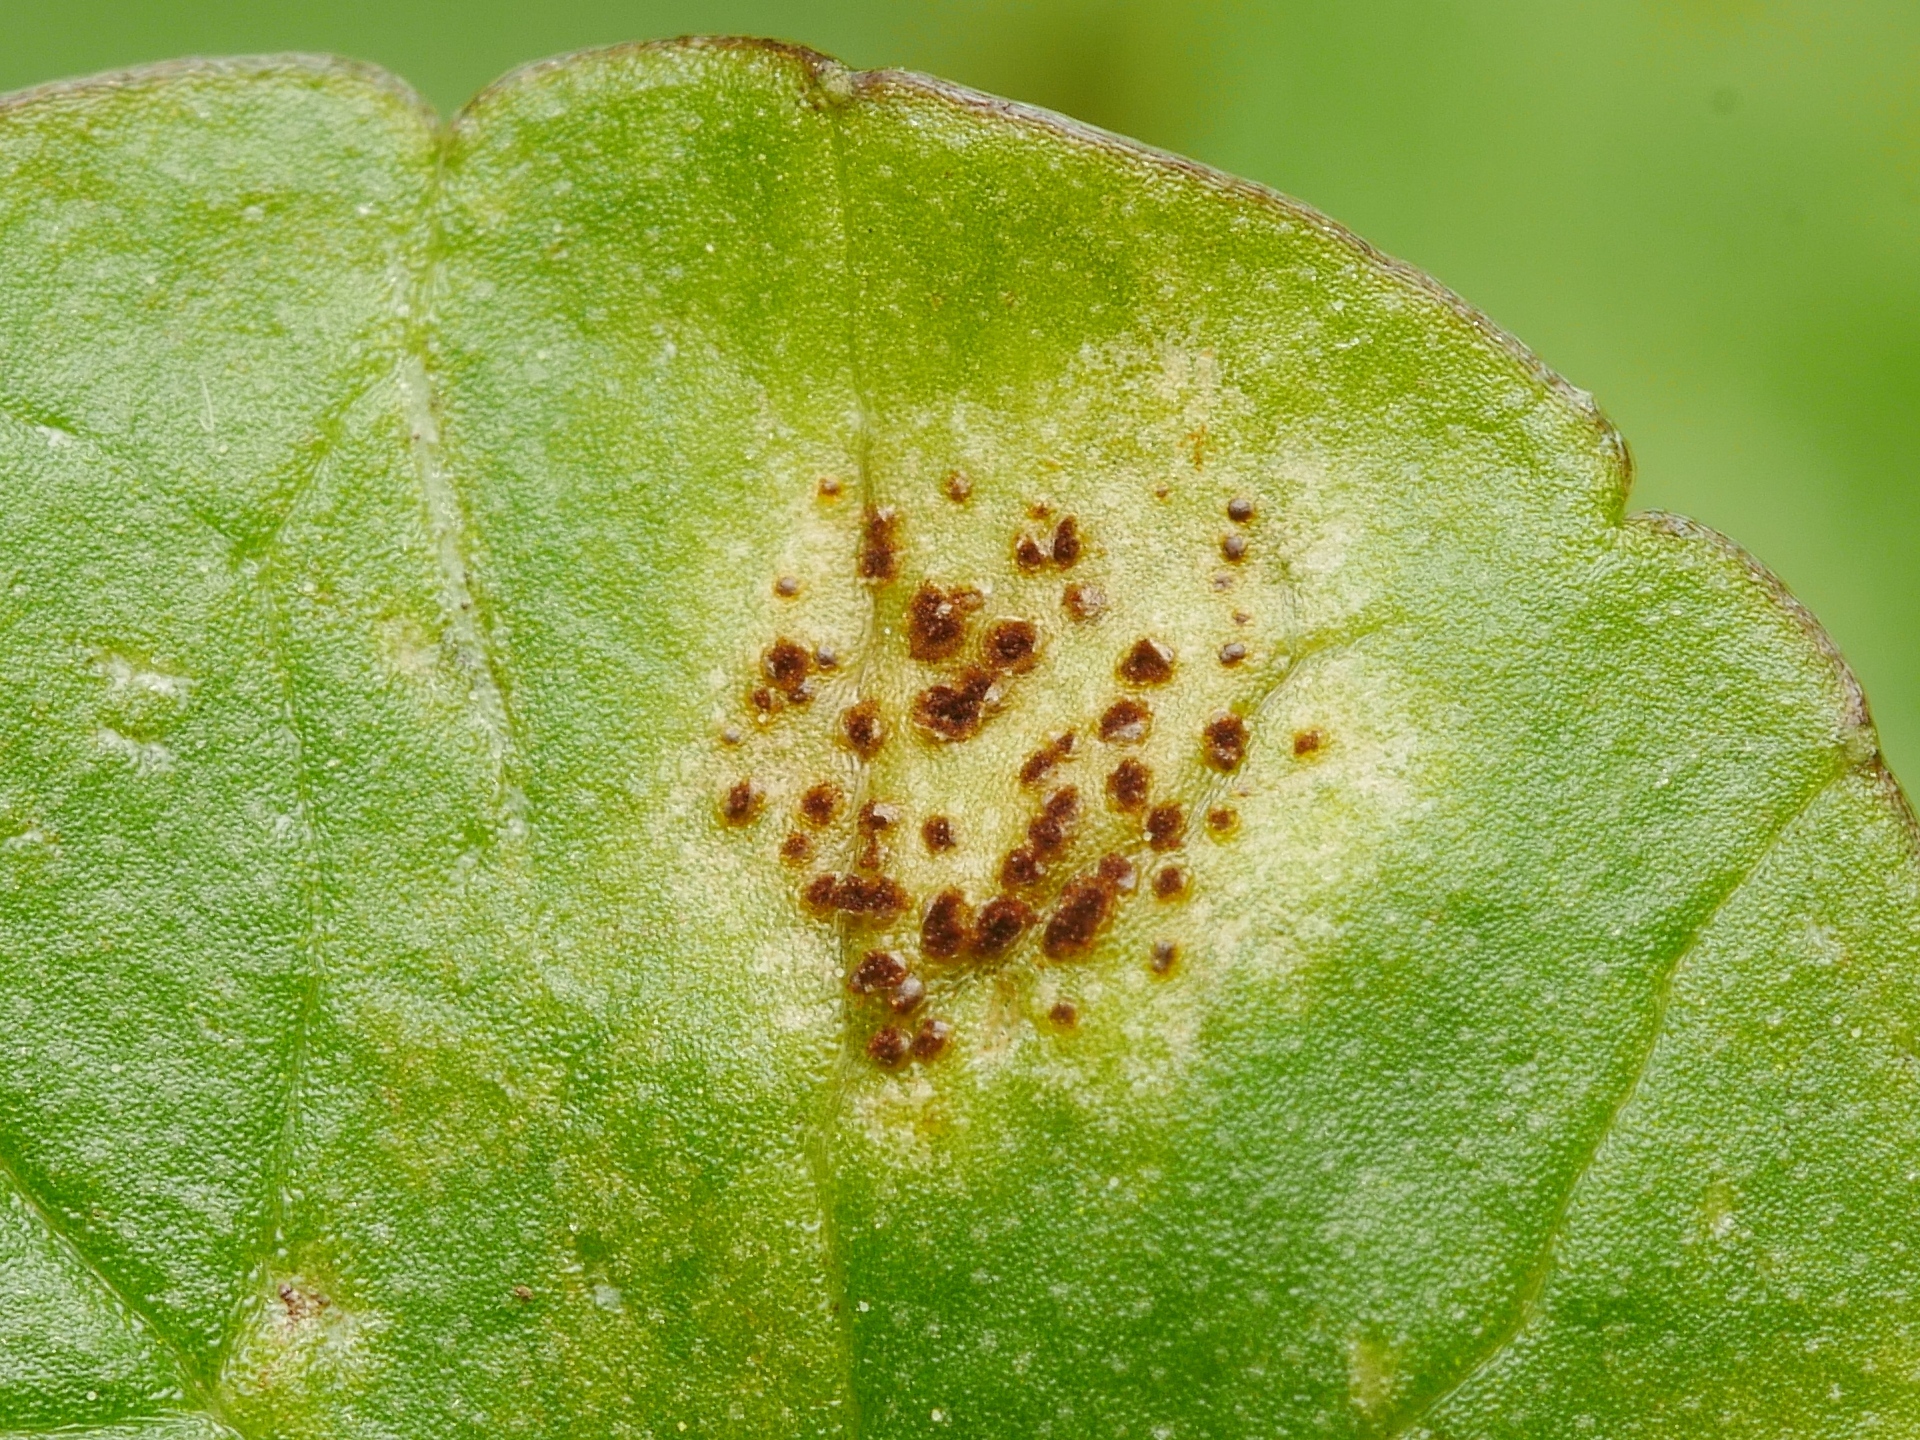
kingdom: Fungi
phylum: Basidiomycota
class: Pucciniomycetes
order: Pucciniales
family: Pucciniaceae
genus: Uromyces
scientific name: Uromyces ficariae
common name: Bitter chocolate rust
